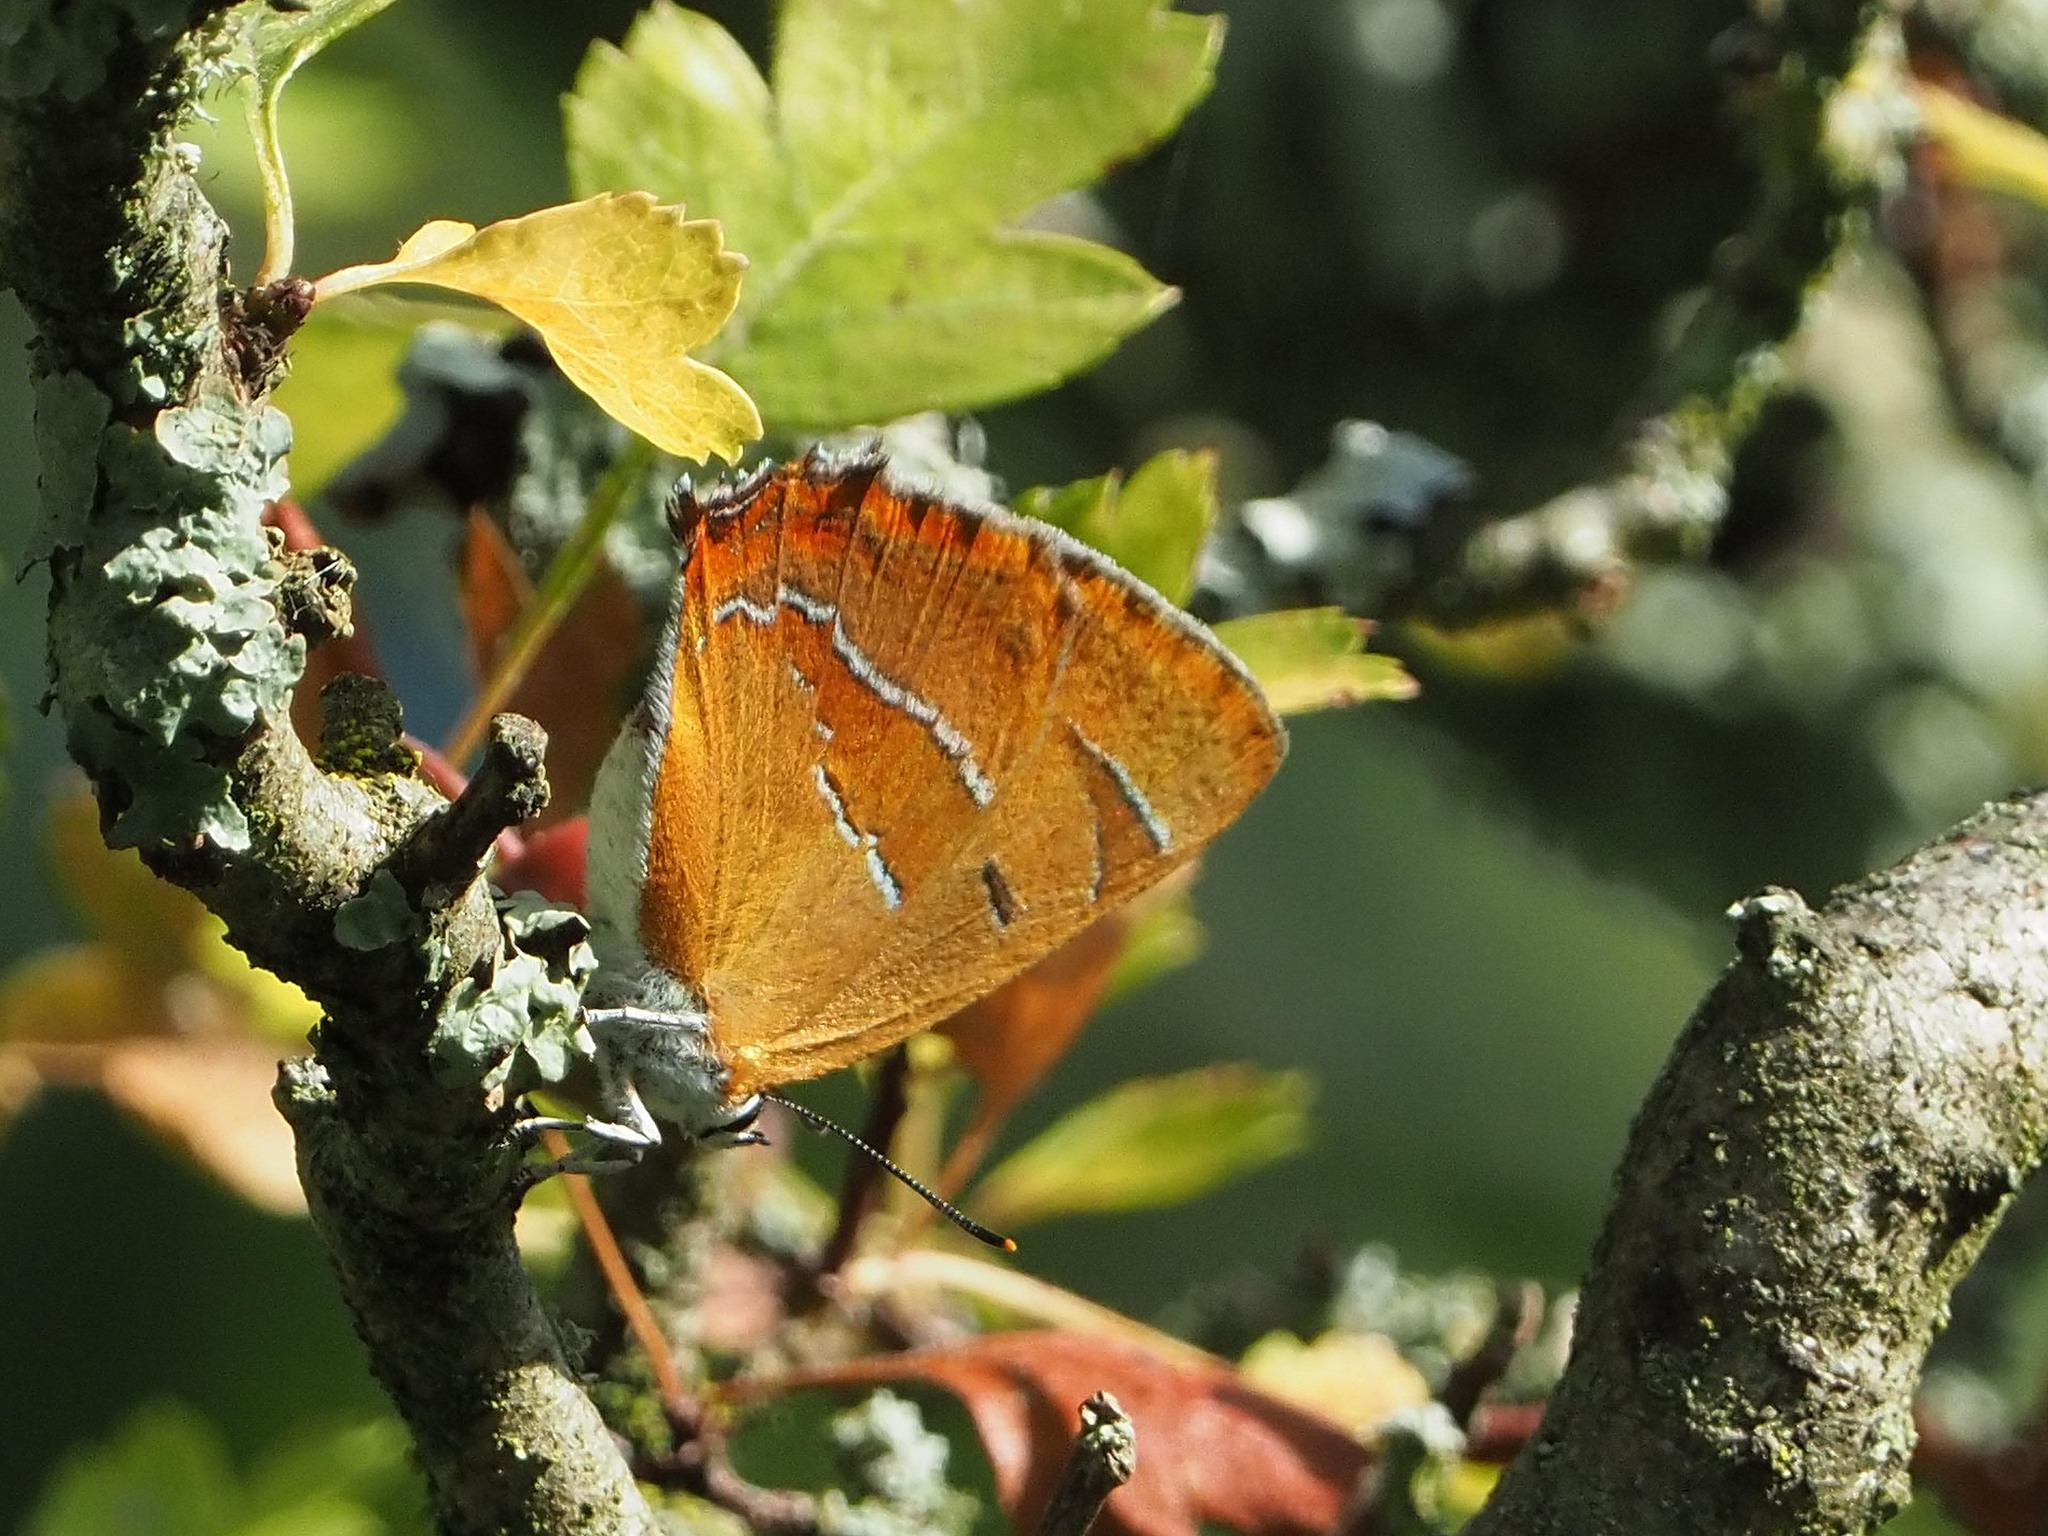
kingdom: Animalia
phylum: Arthropoda
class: Insecta
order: Lepidoptera
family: Lycaenidae
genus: Thecla
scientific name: Thecla betulae
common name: Brown hairstreak
